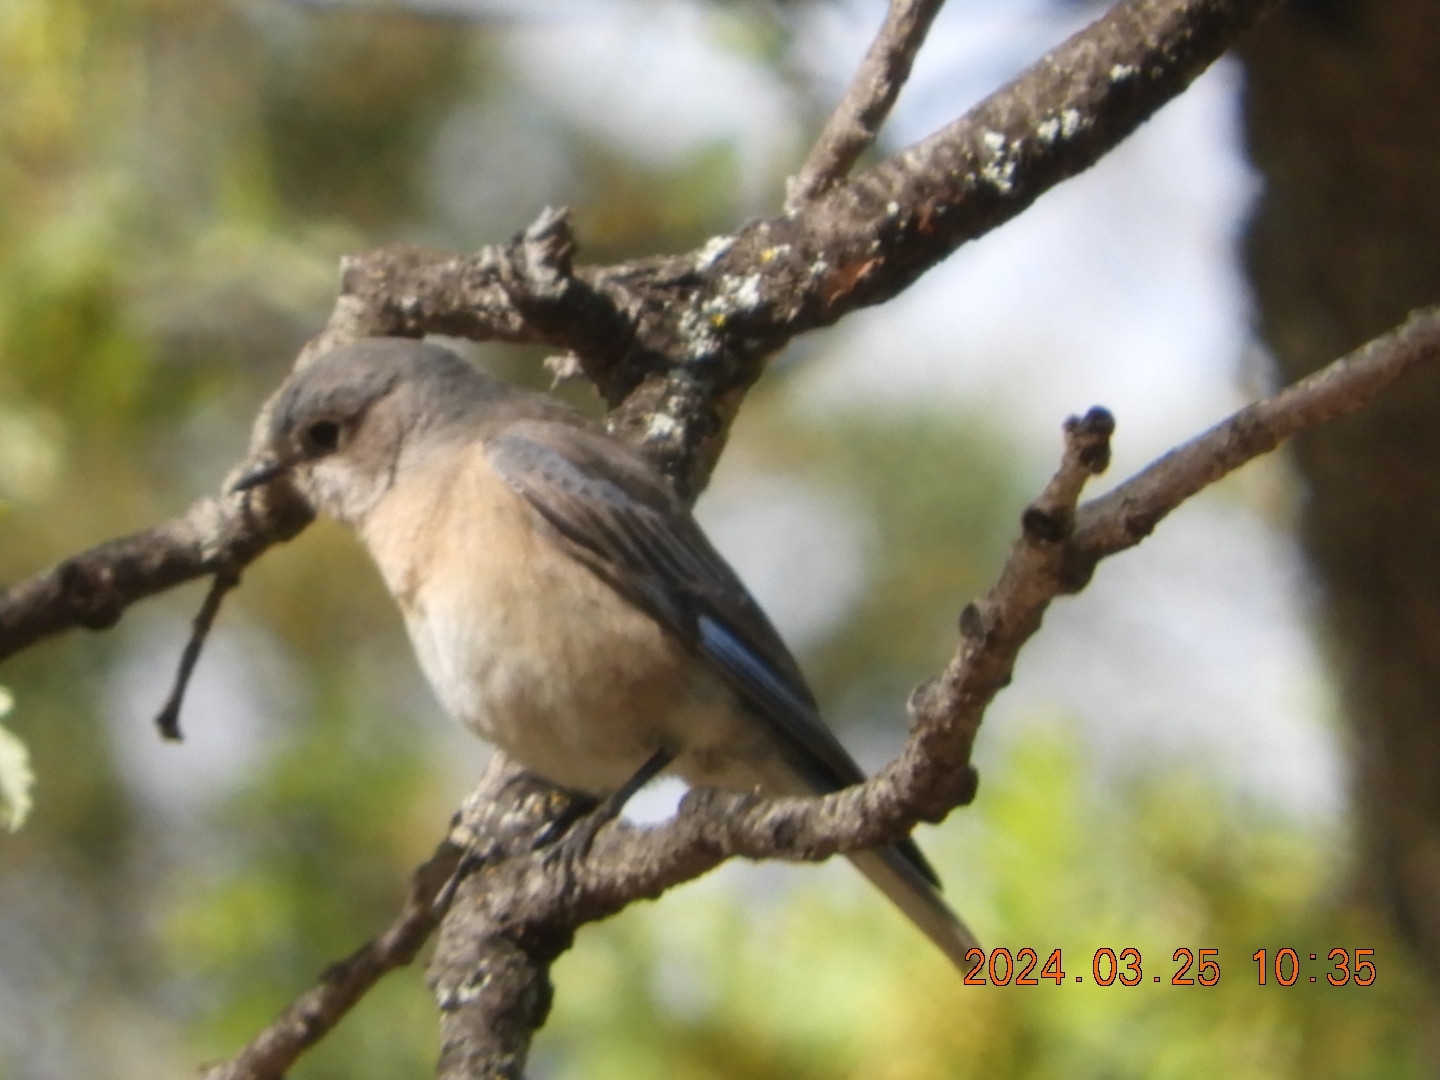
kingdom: Animalia
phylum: Chordata
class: Aves
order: Passeriformes
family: Turdidae
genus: Sialia
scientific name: Sialia mexicana
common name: Western bluebird
